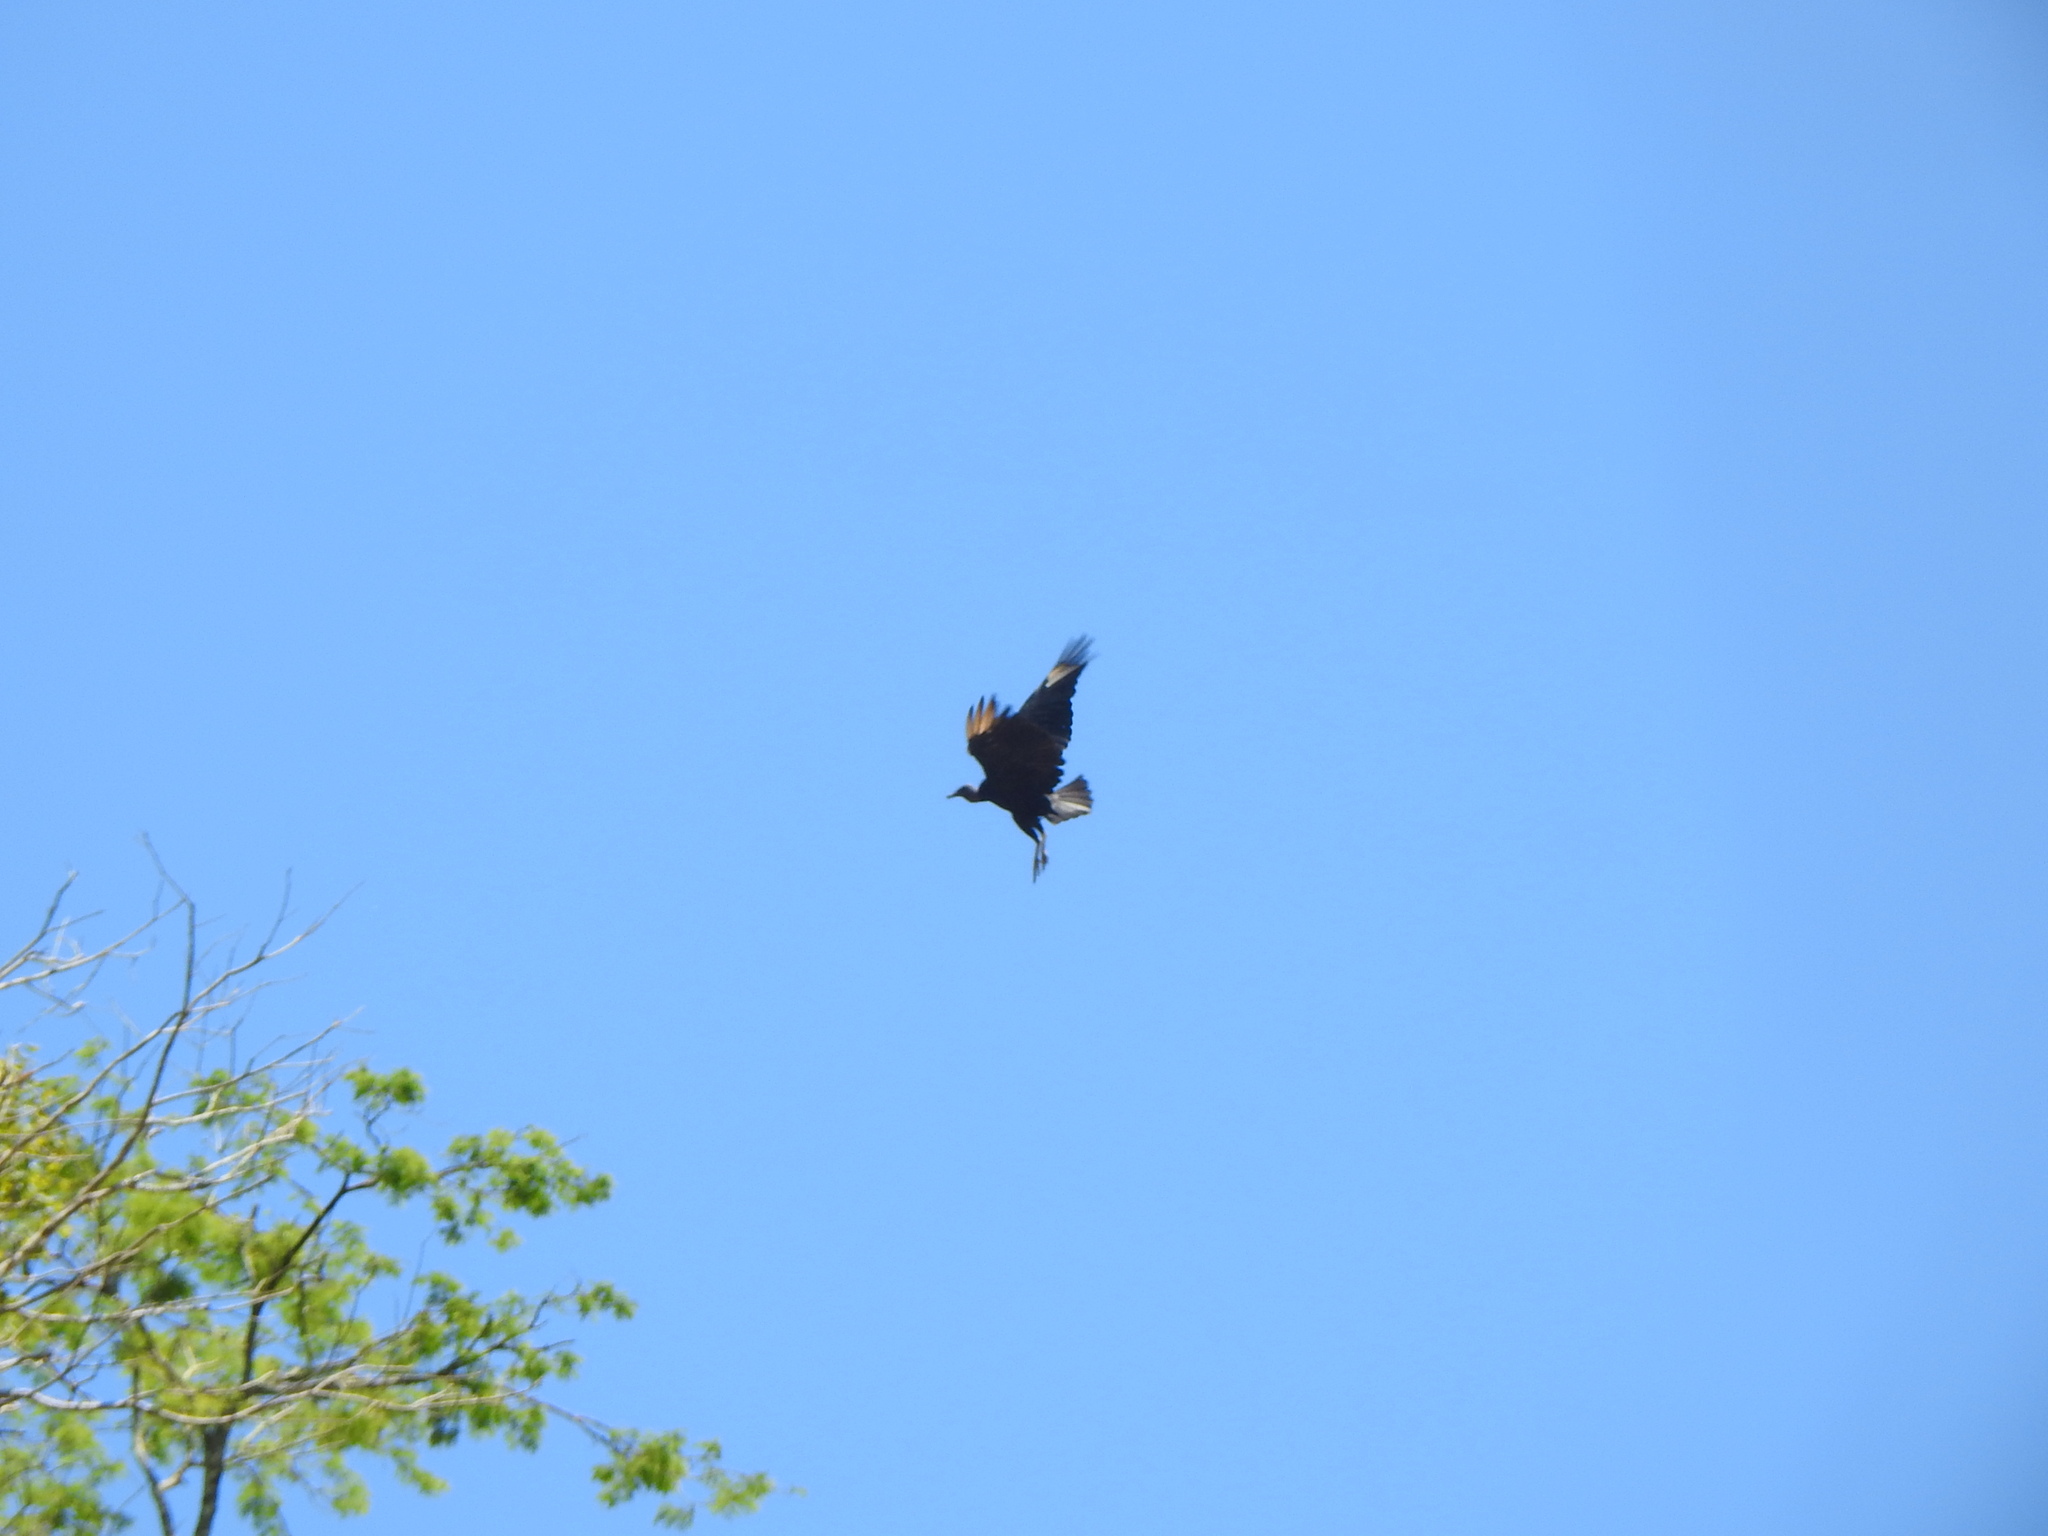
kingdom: Animalia
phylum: Chordata
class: Aves
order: Accipitriformes
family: Cathartidae
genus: Coragyps
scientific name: Coragyps atratus
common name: Black vulture
